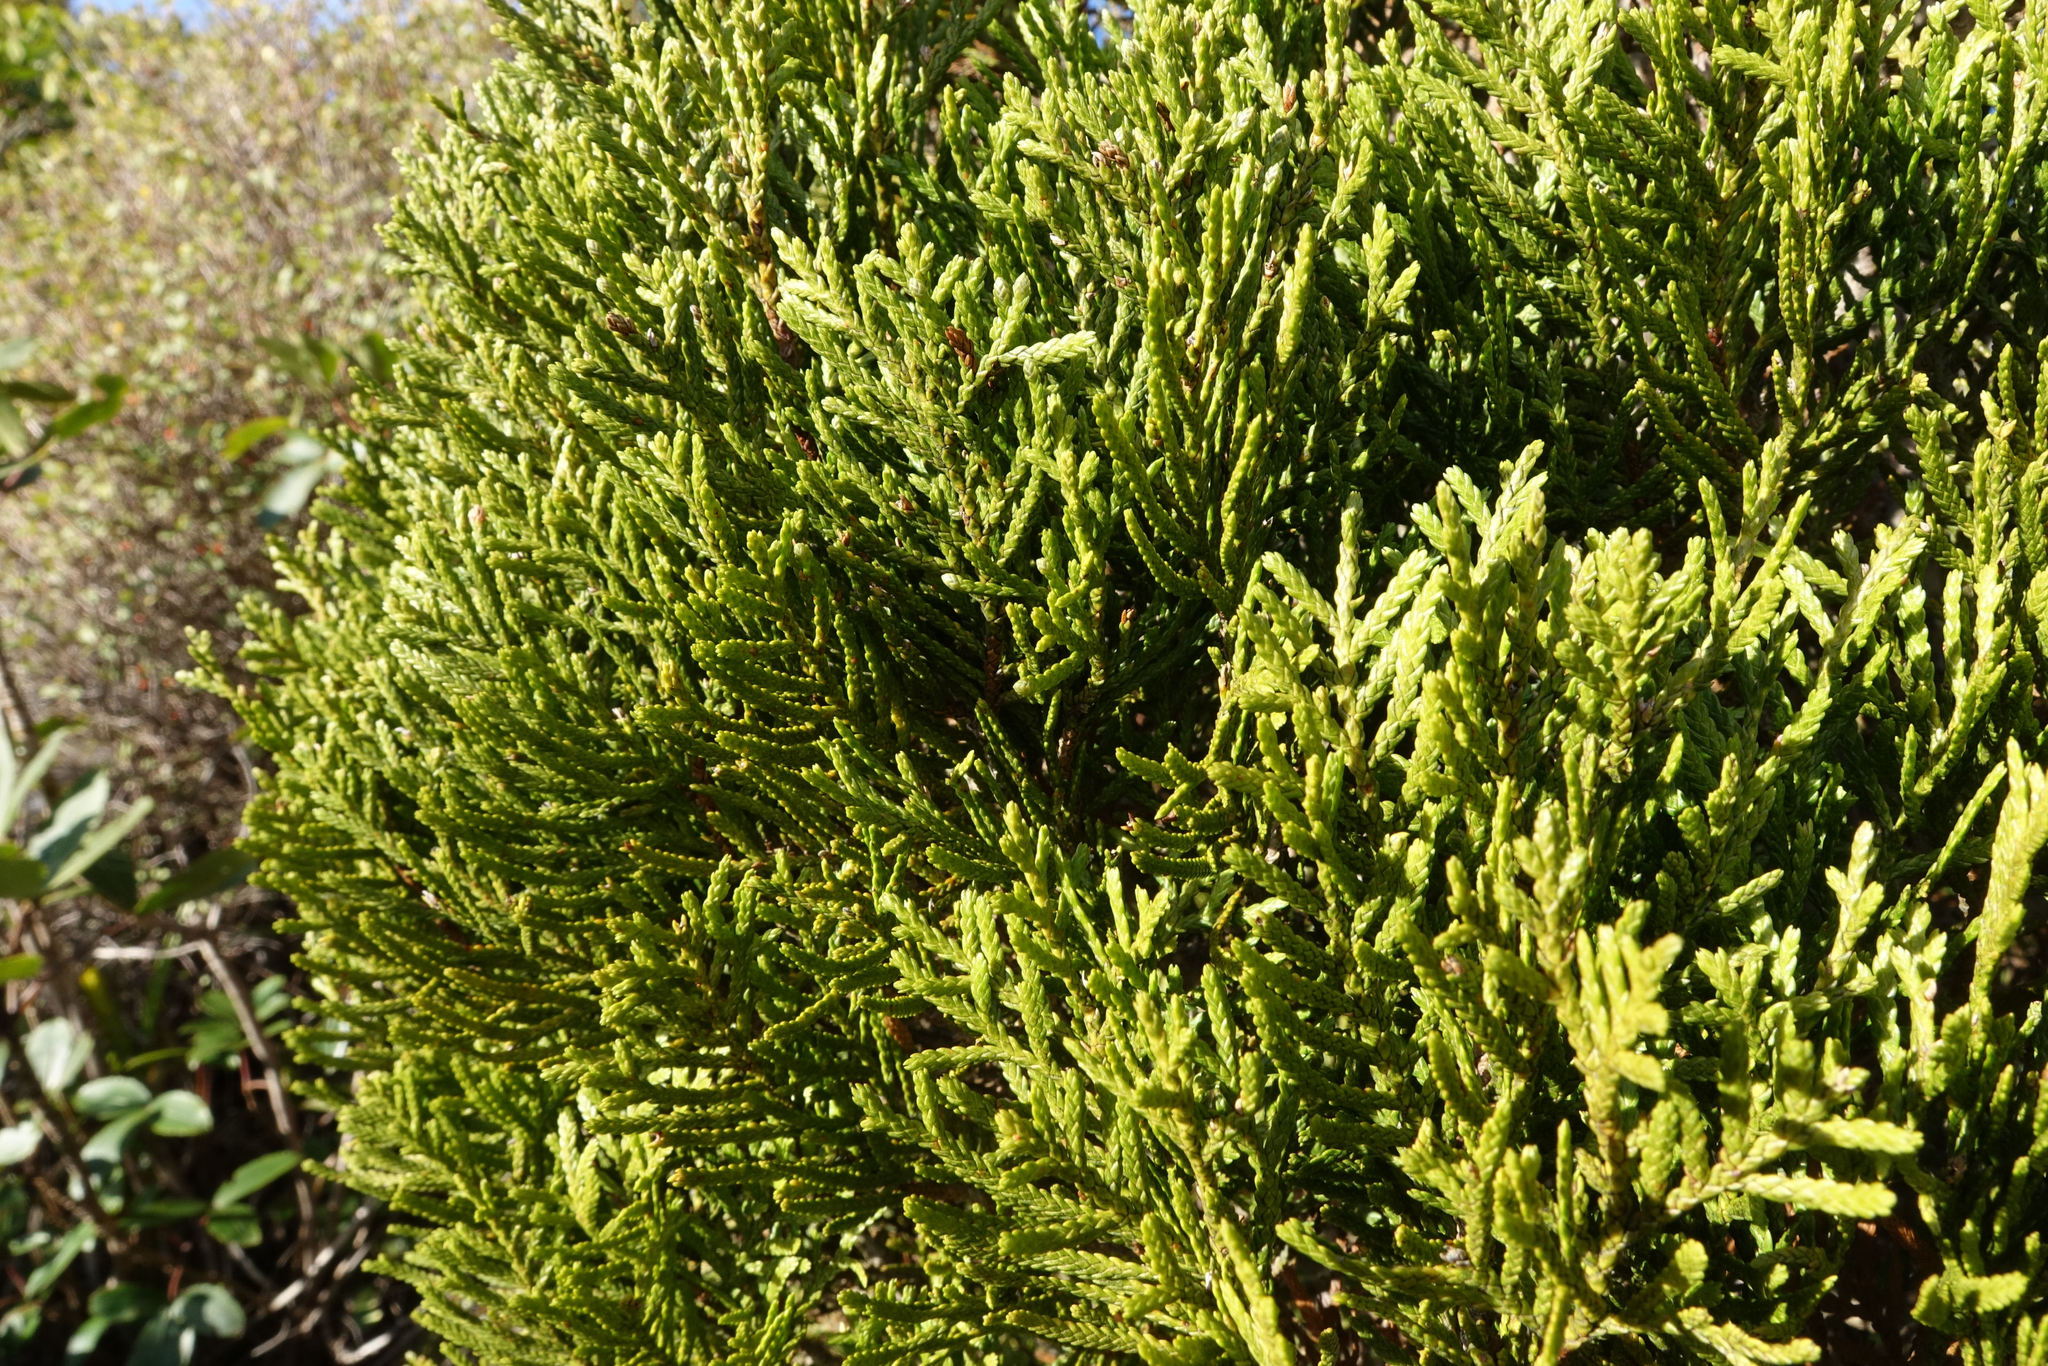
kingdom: Plantae
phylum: Tracheophyta
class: Pinopsida
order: Pinales
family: Cupressaceae
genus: Libocedrus
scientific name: Libocedrus bidwillii
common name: Cedar
